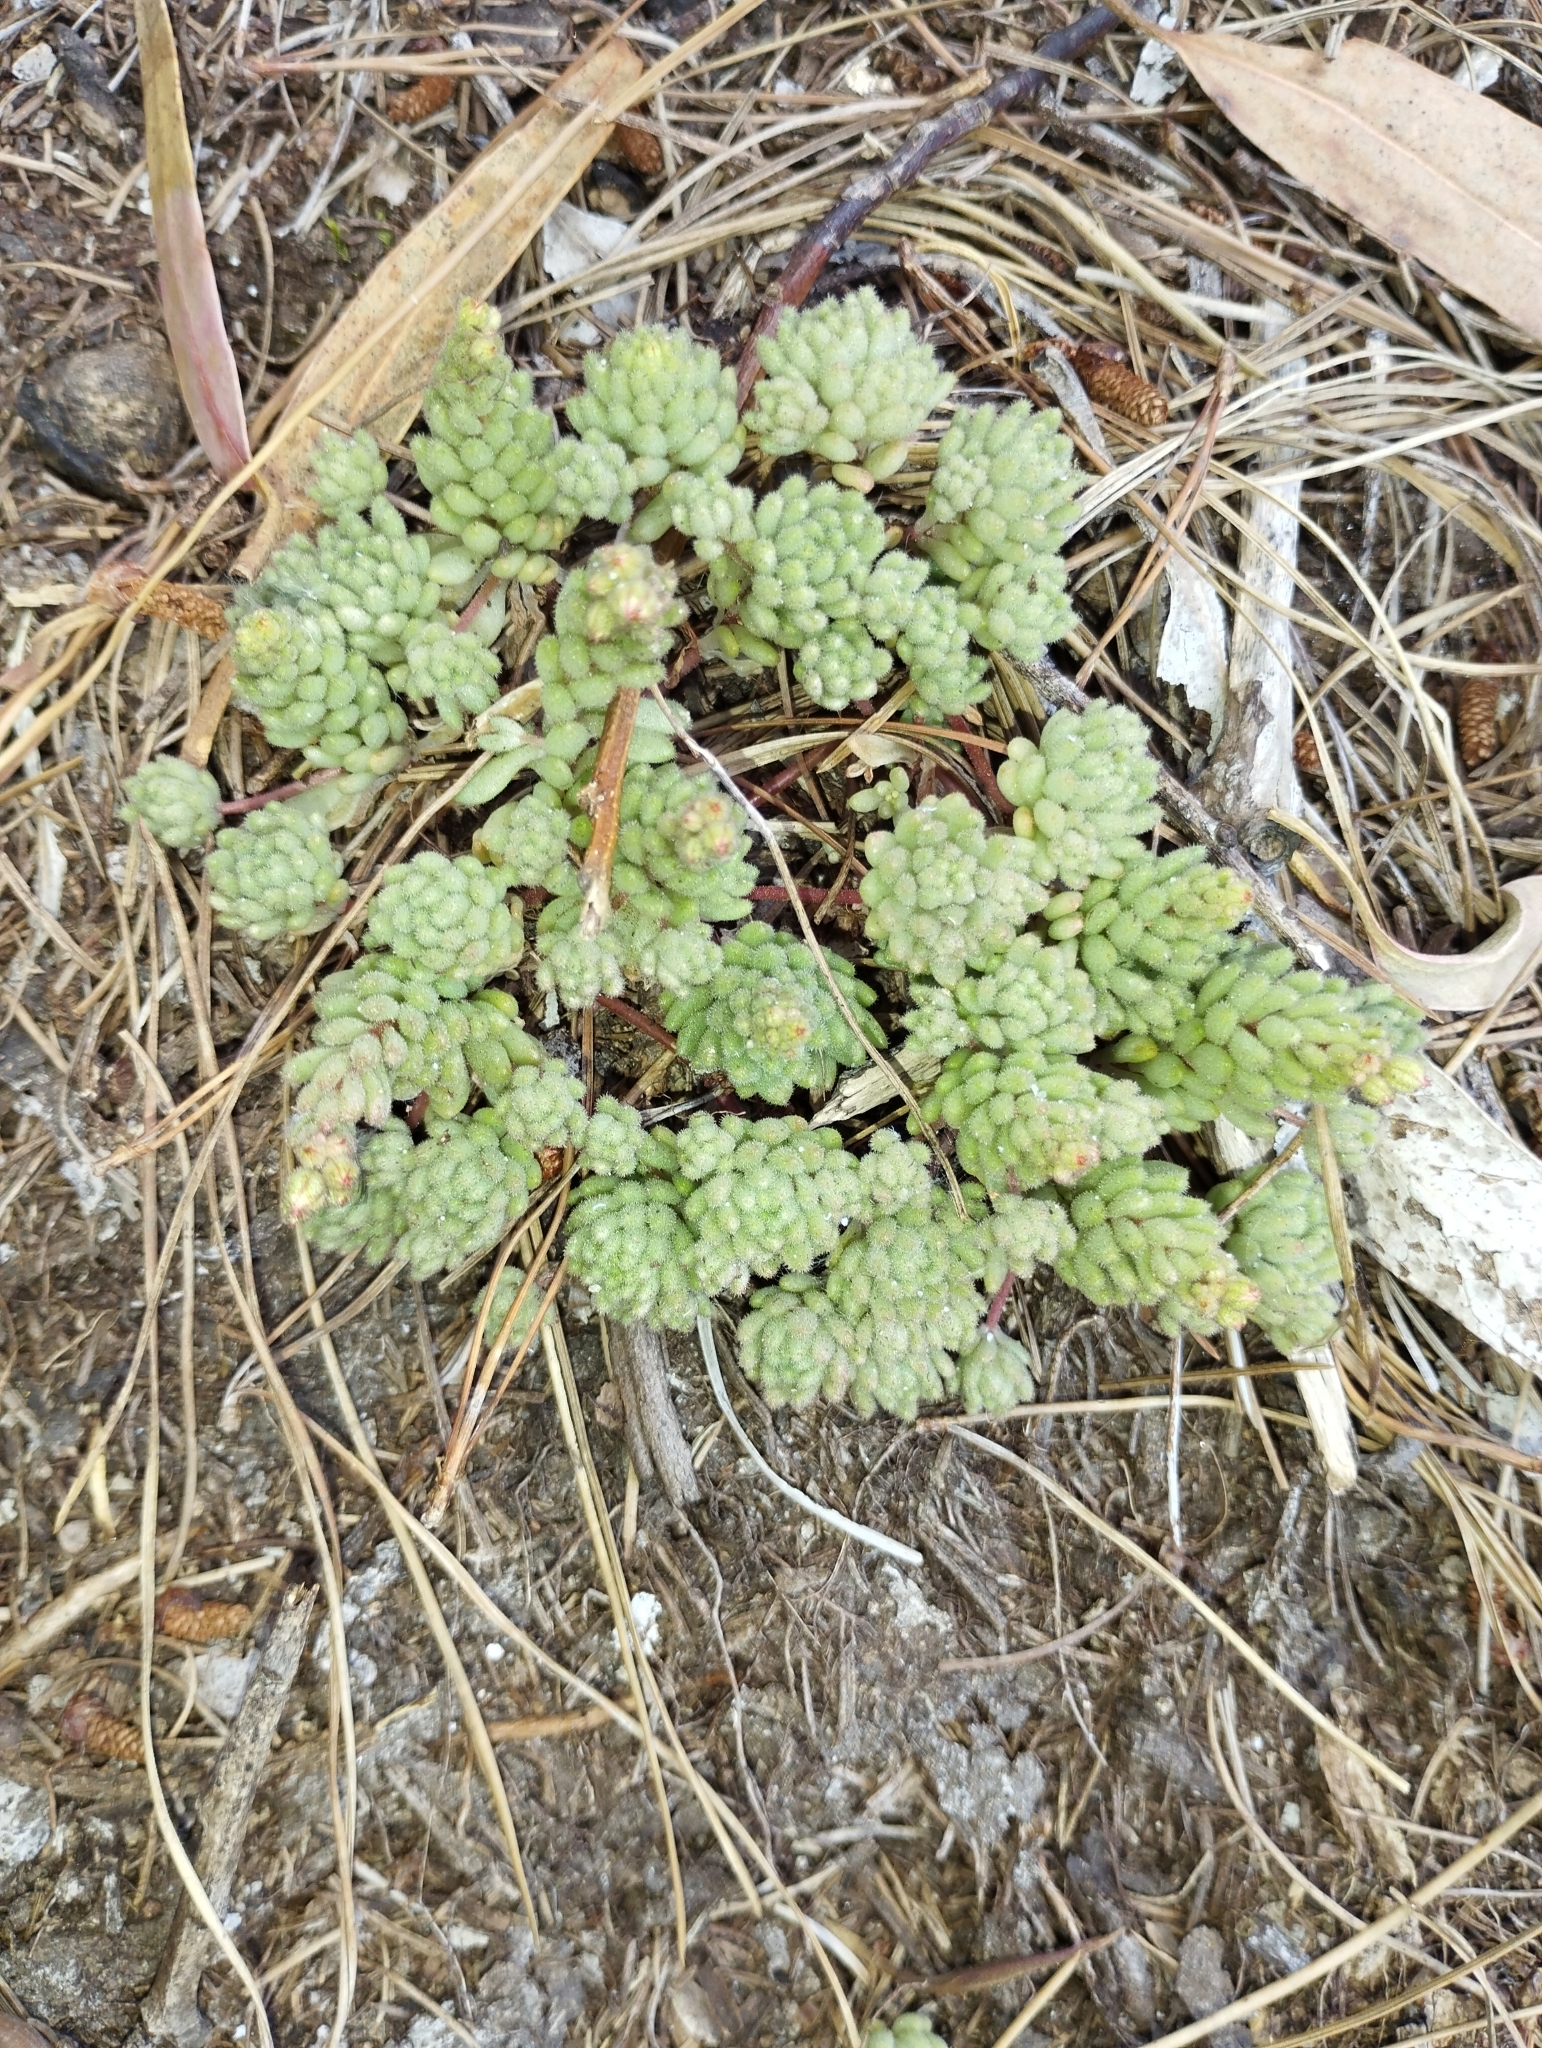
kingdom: Plantae
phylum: Tracheophyta
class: Magnoliopsida
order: Saxifragales
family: Crassulaceae
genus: Sedum
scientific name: Sedum hirsutum
